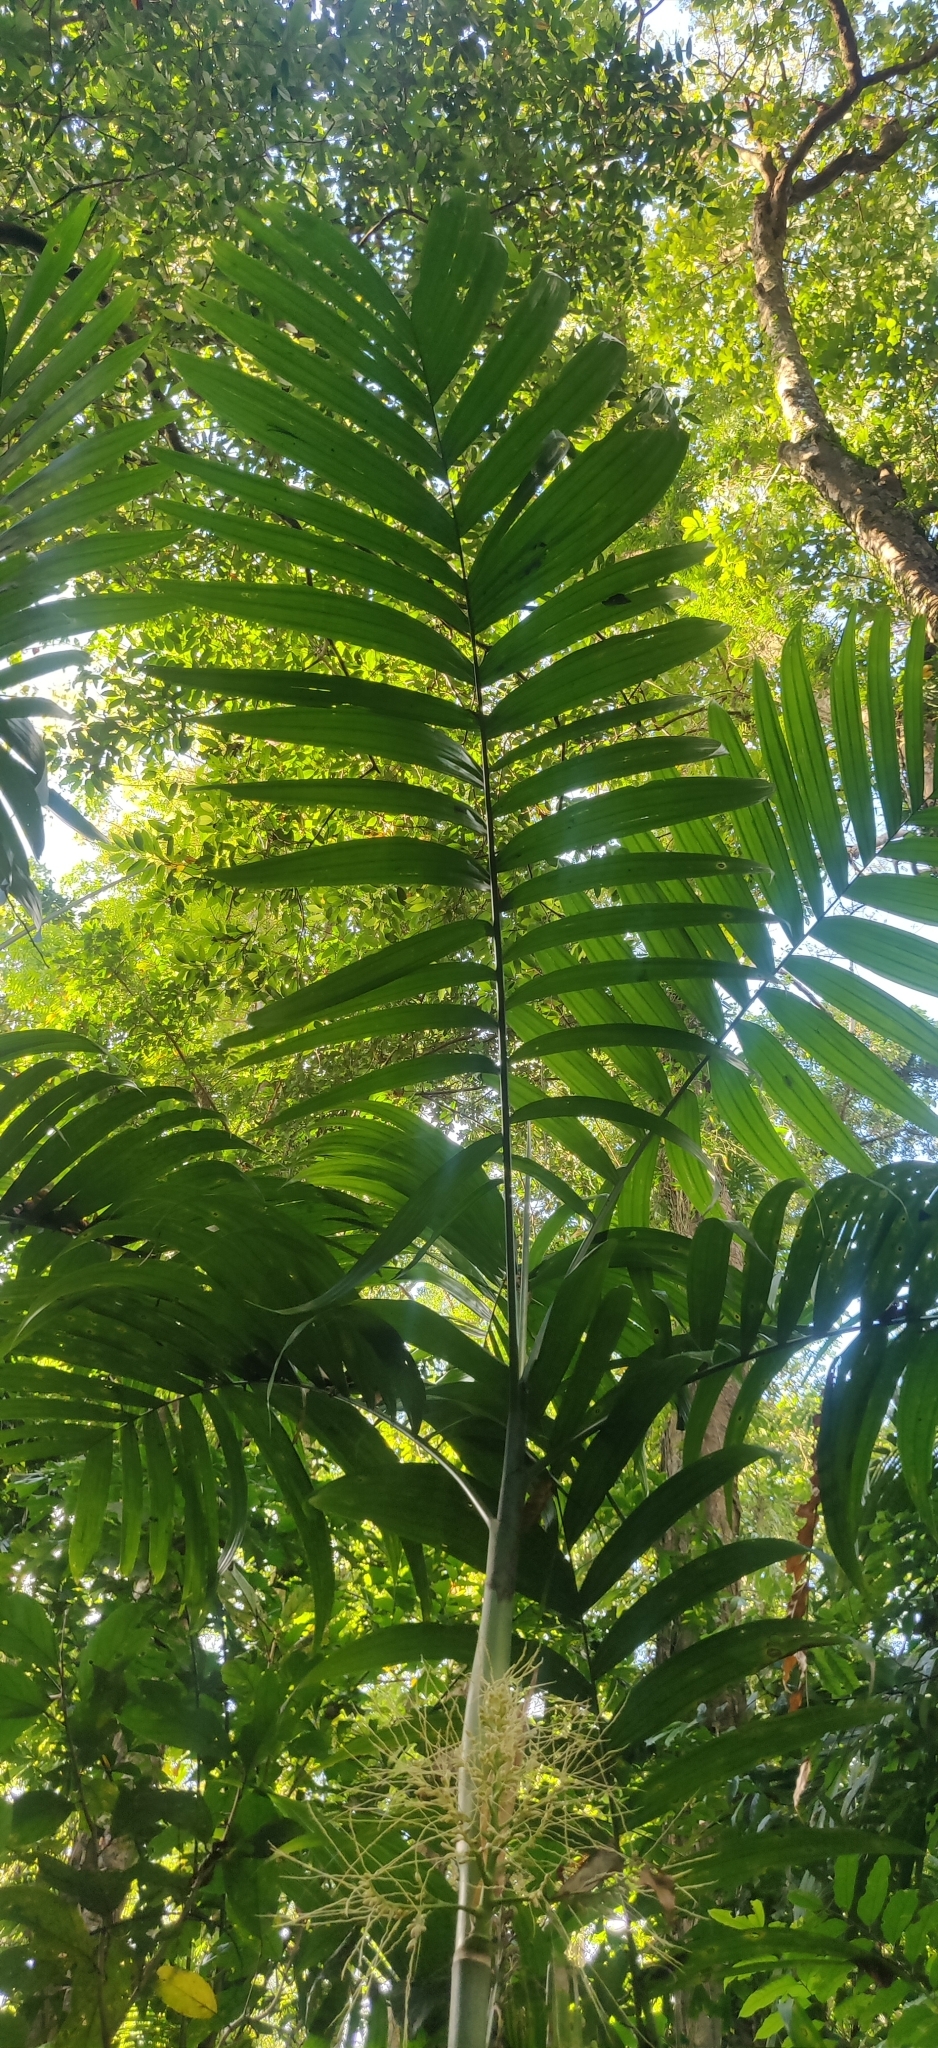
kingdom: Plantae
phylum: Tracheophyta
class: Liliopsida
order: Arecales
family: Arecaceae
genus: Areca
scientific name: Areca triandra
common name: Australian areca palm
